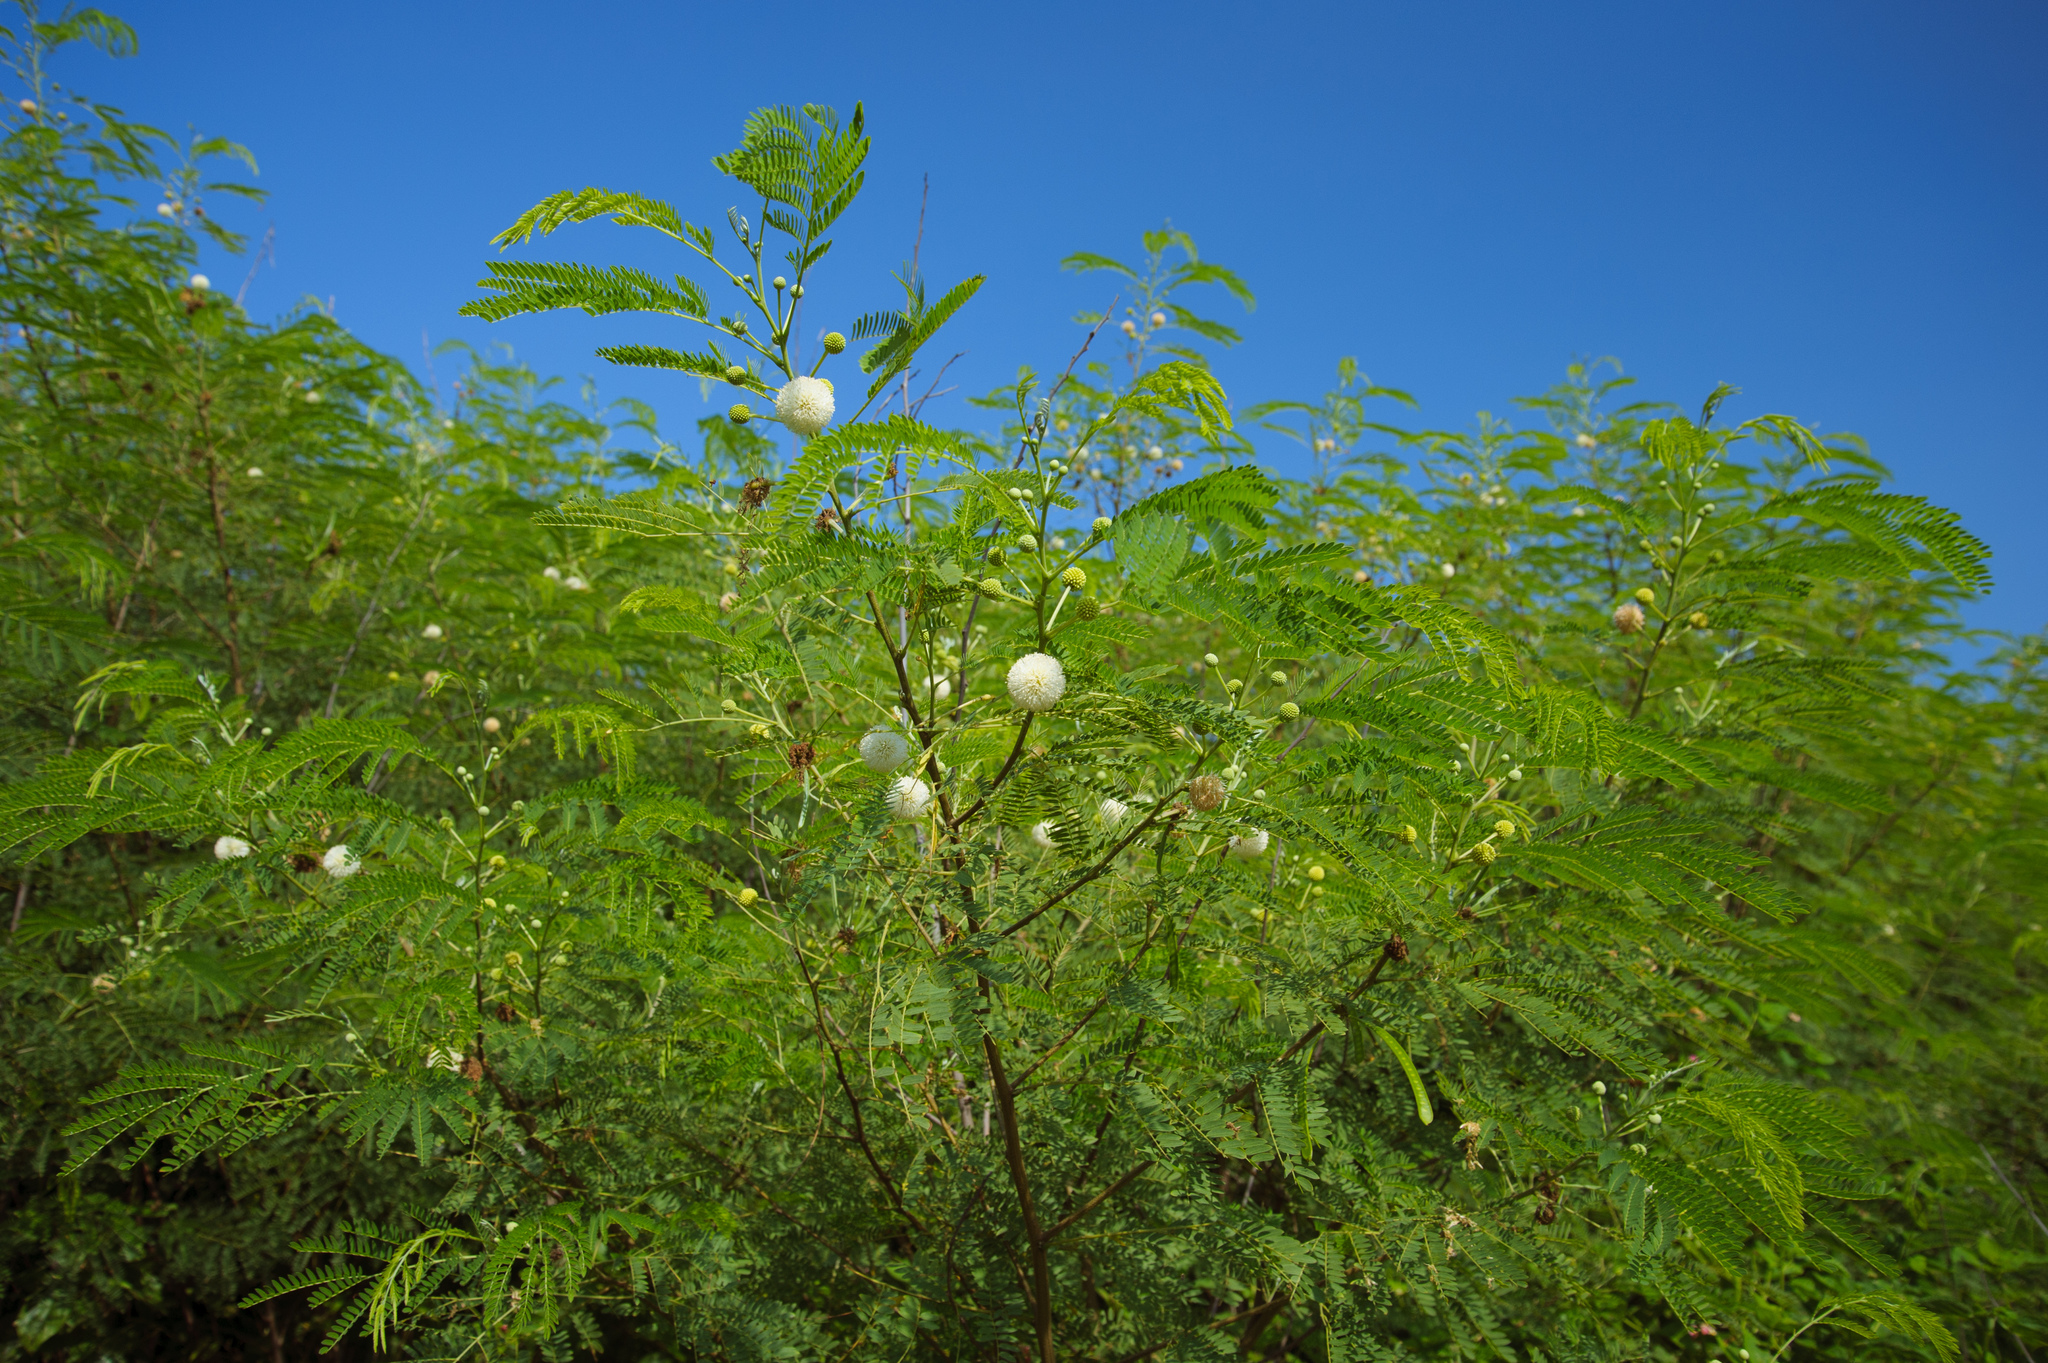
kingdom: Plantae
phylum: Tracheophyta
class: Magnoliopsida
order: Fabales
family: Fabaceae
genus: Leucaena
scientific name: Leucaena leucocephala
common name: White leadtree
